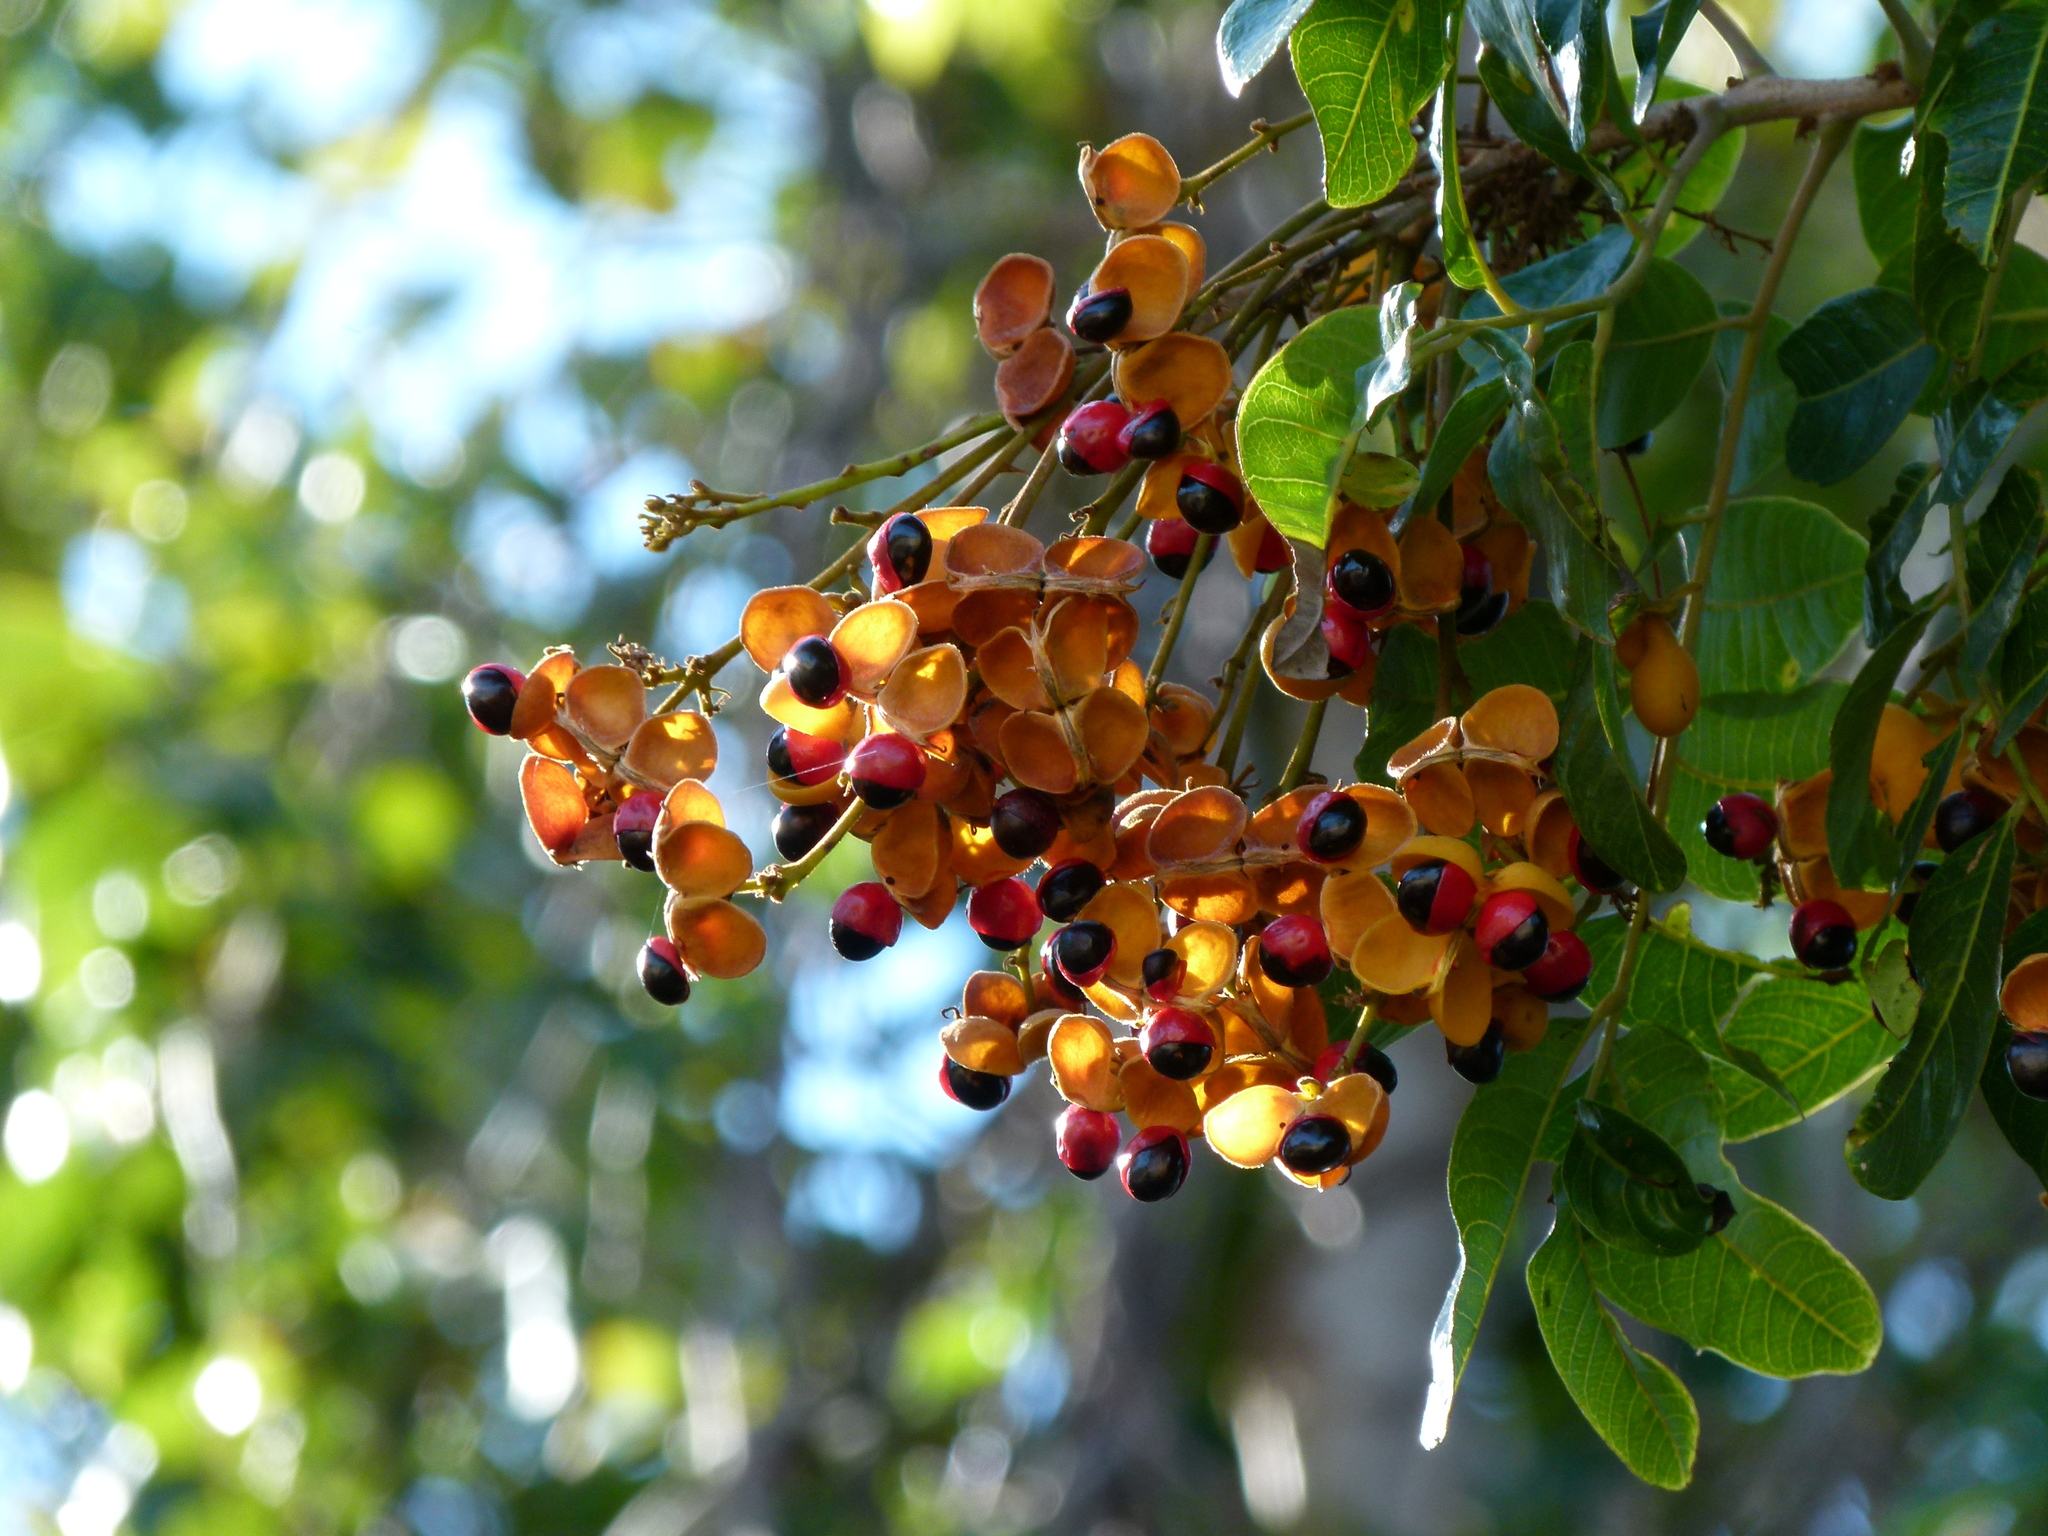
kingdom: Plantae
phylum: Tracheophyta
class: Magnoliopsida
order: Sapindales
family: Sapindaceae
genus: Harpullia
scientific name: Harpullia hillii
